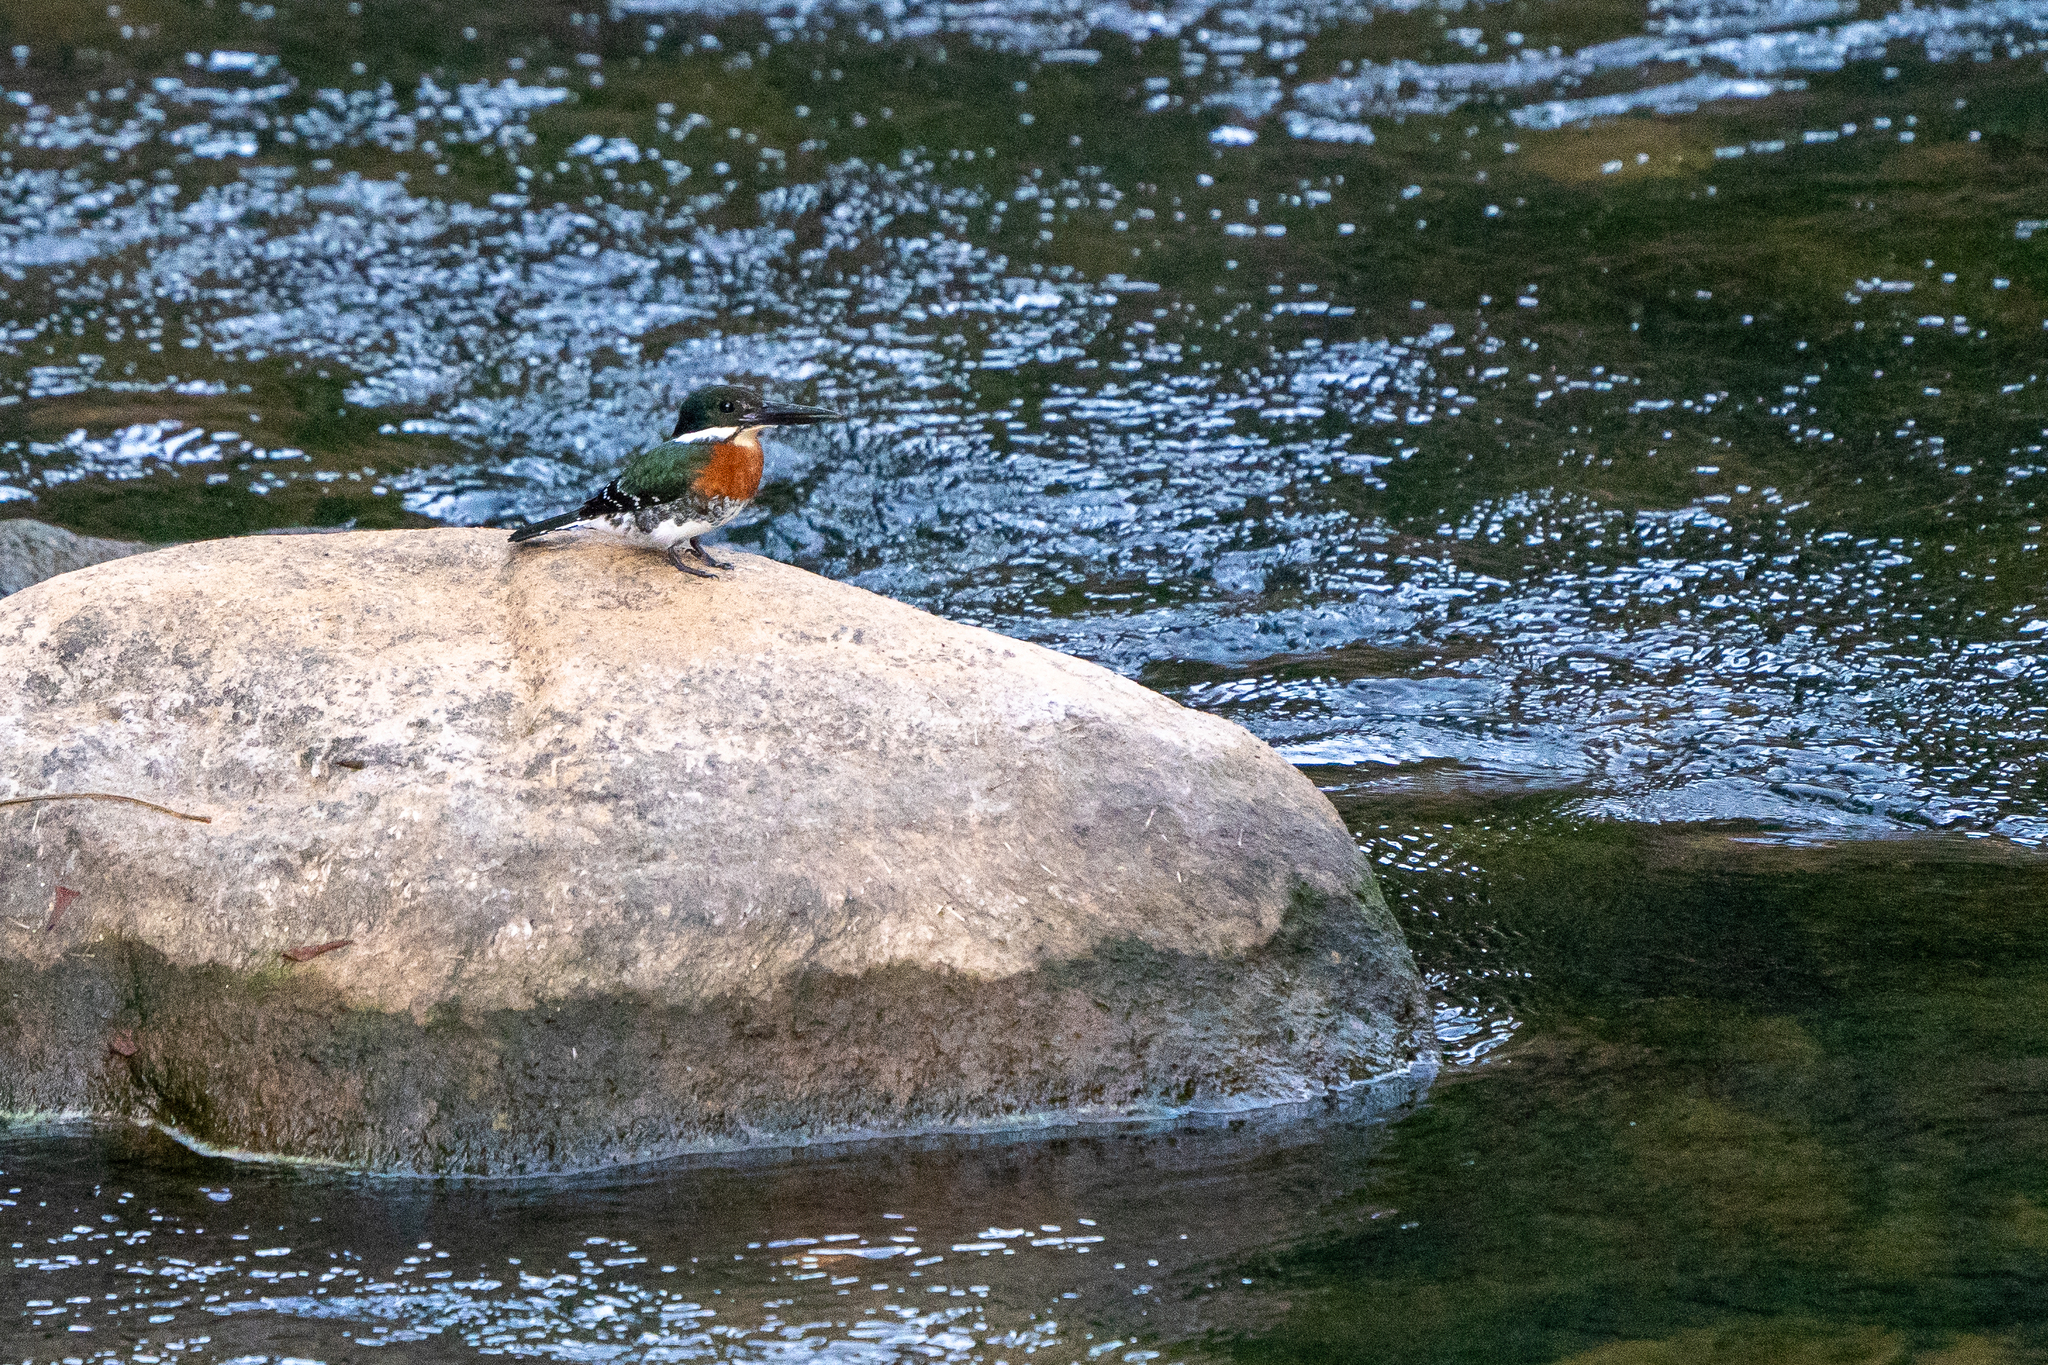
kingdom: Animalia
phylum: Chordata
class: Aves
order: Coraciiformes
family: Alcedinidae
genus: Chloroceryle
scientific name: Chloroceryle americana
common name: Green kingfisher
